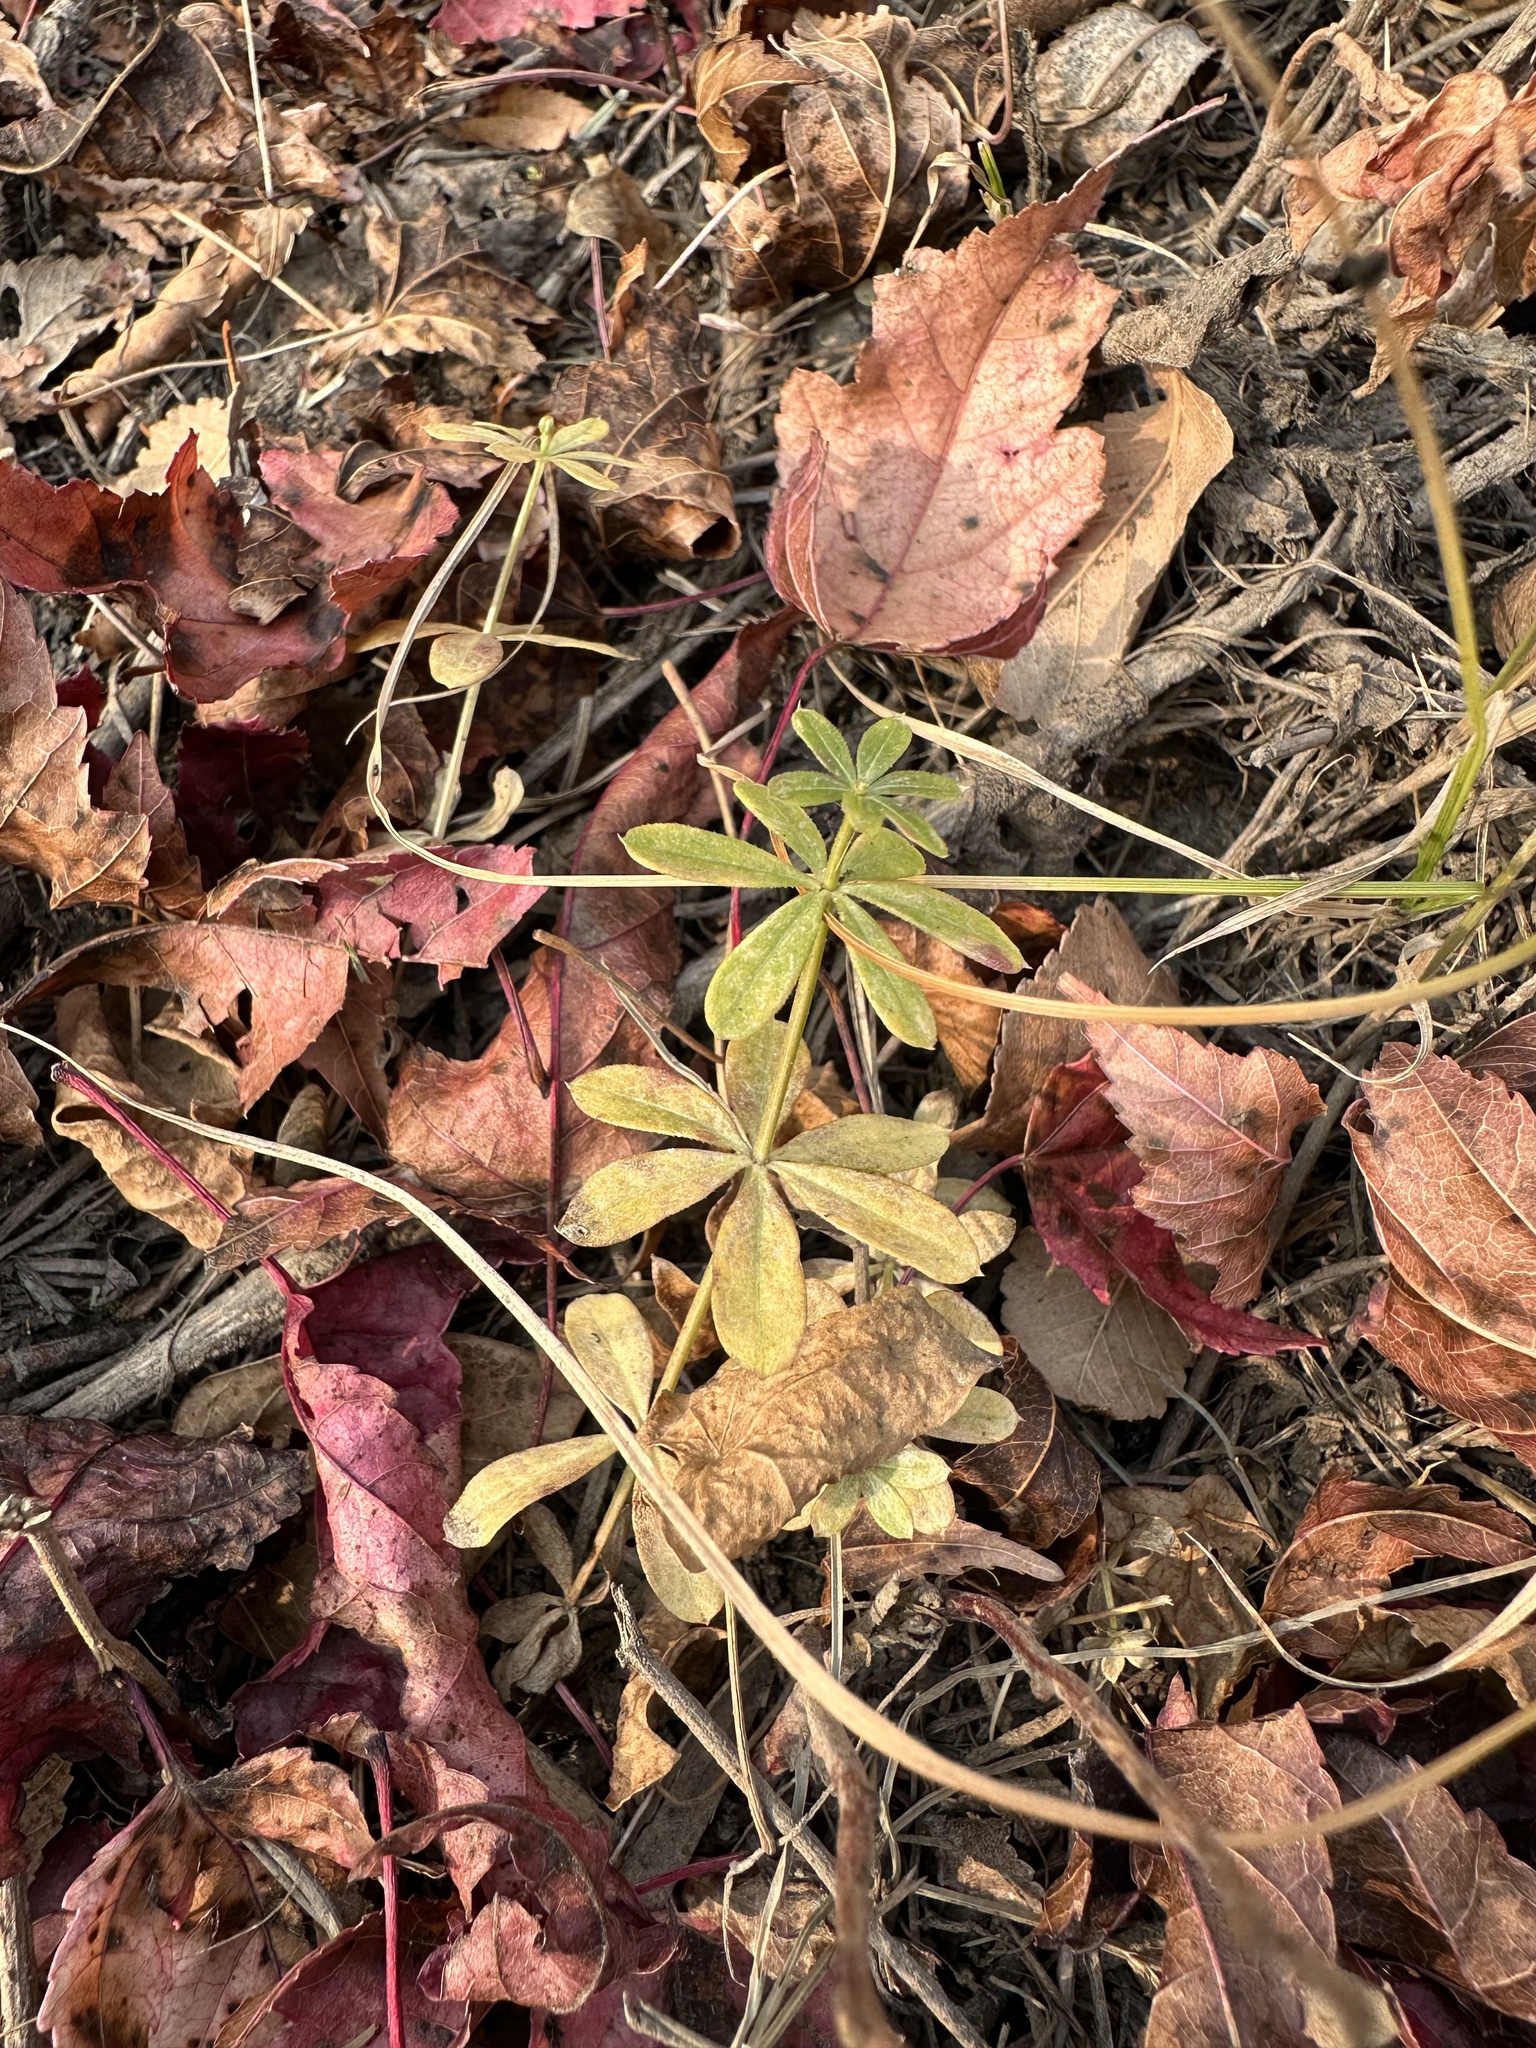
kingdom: Plantae
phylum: Tracheophyta
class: Magnoliopsida
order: Gentianales
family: Rubiaceae
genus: Galium
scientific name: Galium dahuricum
